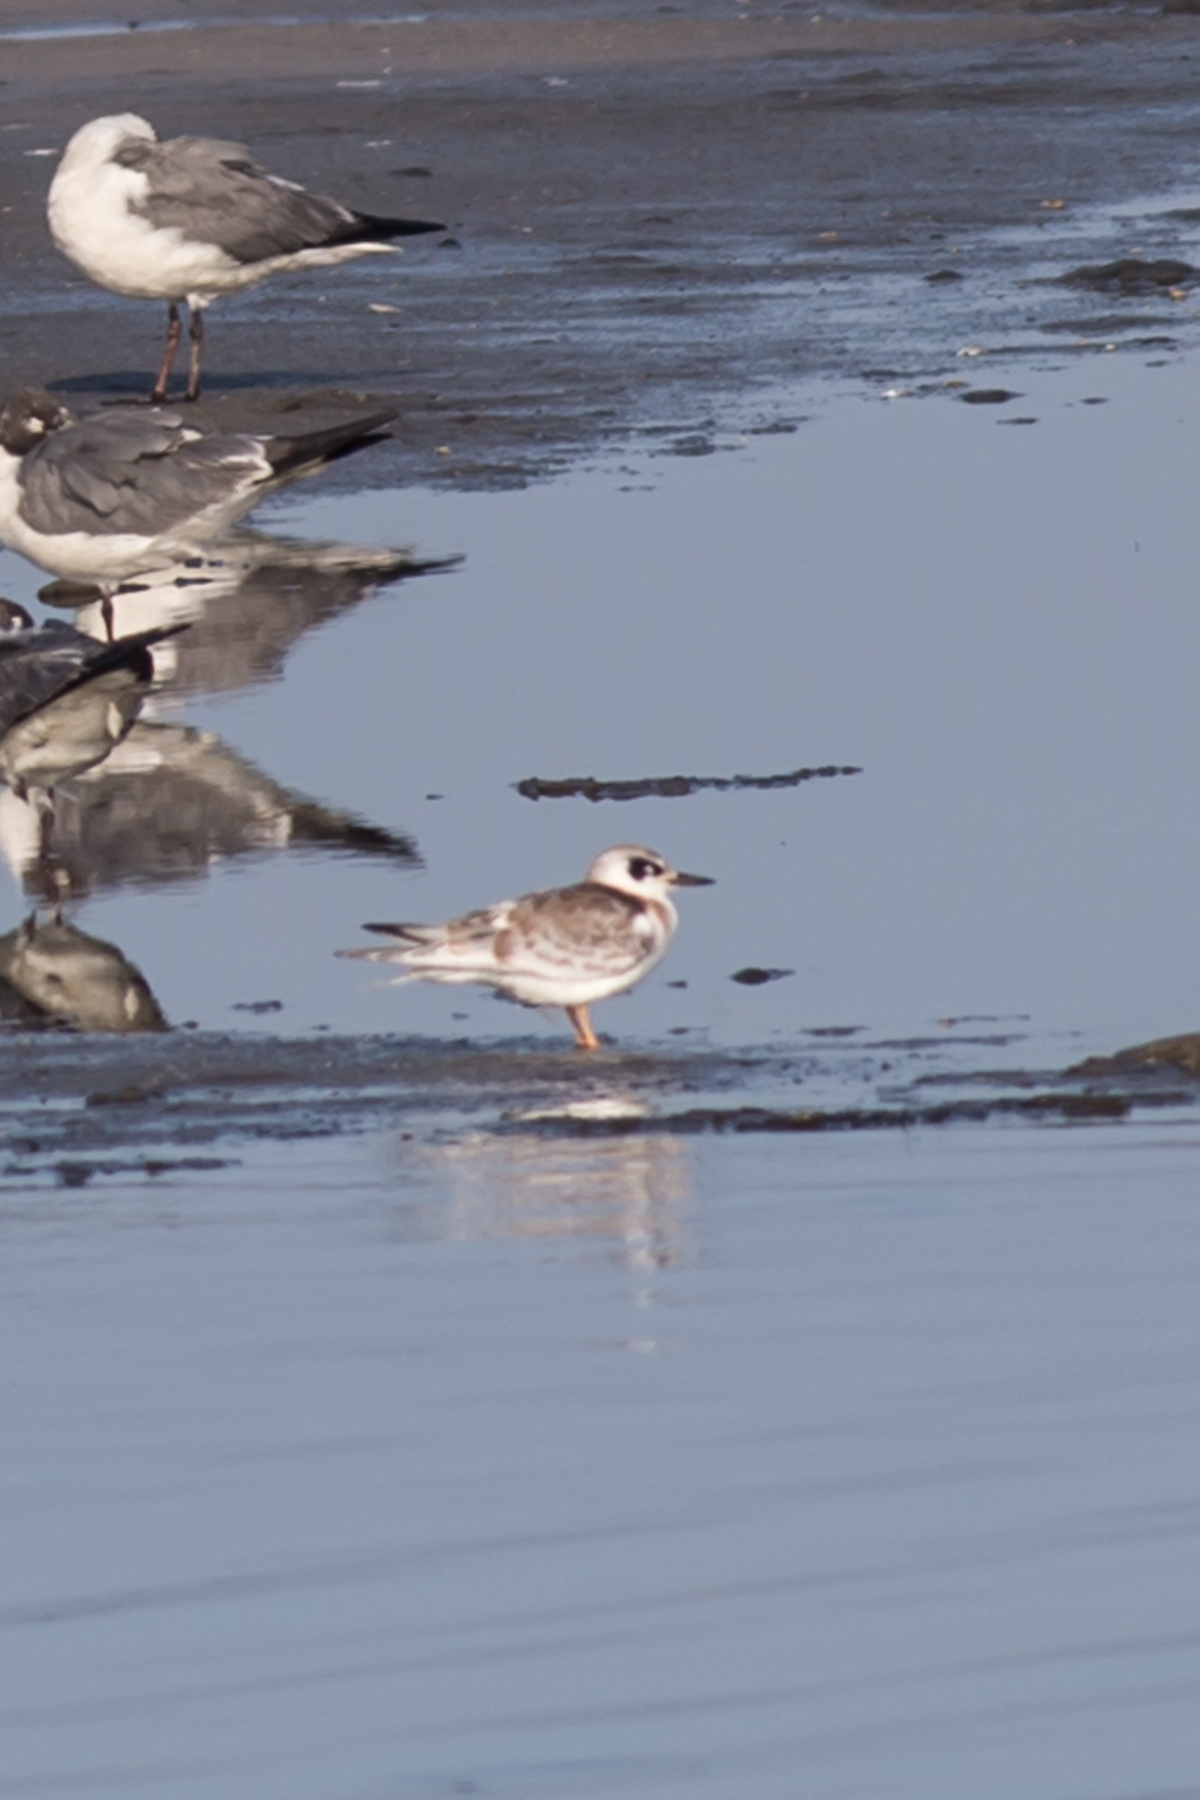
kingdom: Animalia
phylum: Chordata
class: Aves
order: Charadriiformes
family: Laridae
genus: Sterna
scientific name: Sterna forsteri
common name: Forster's tern
